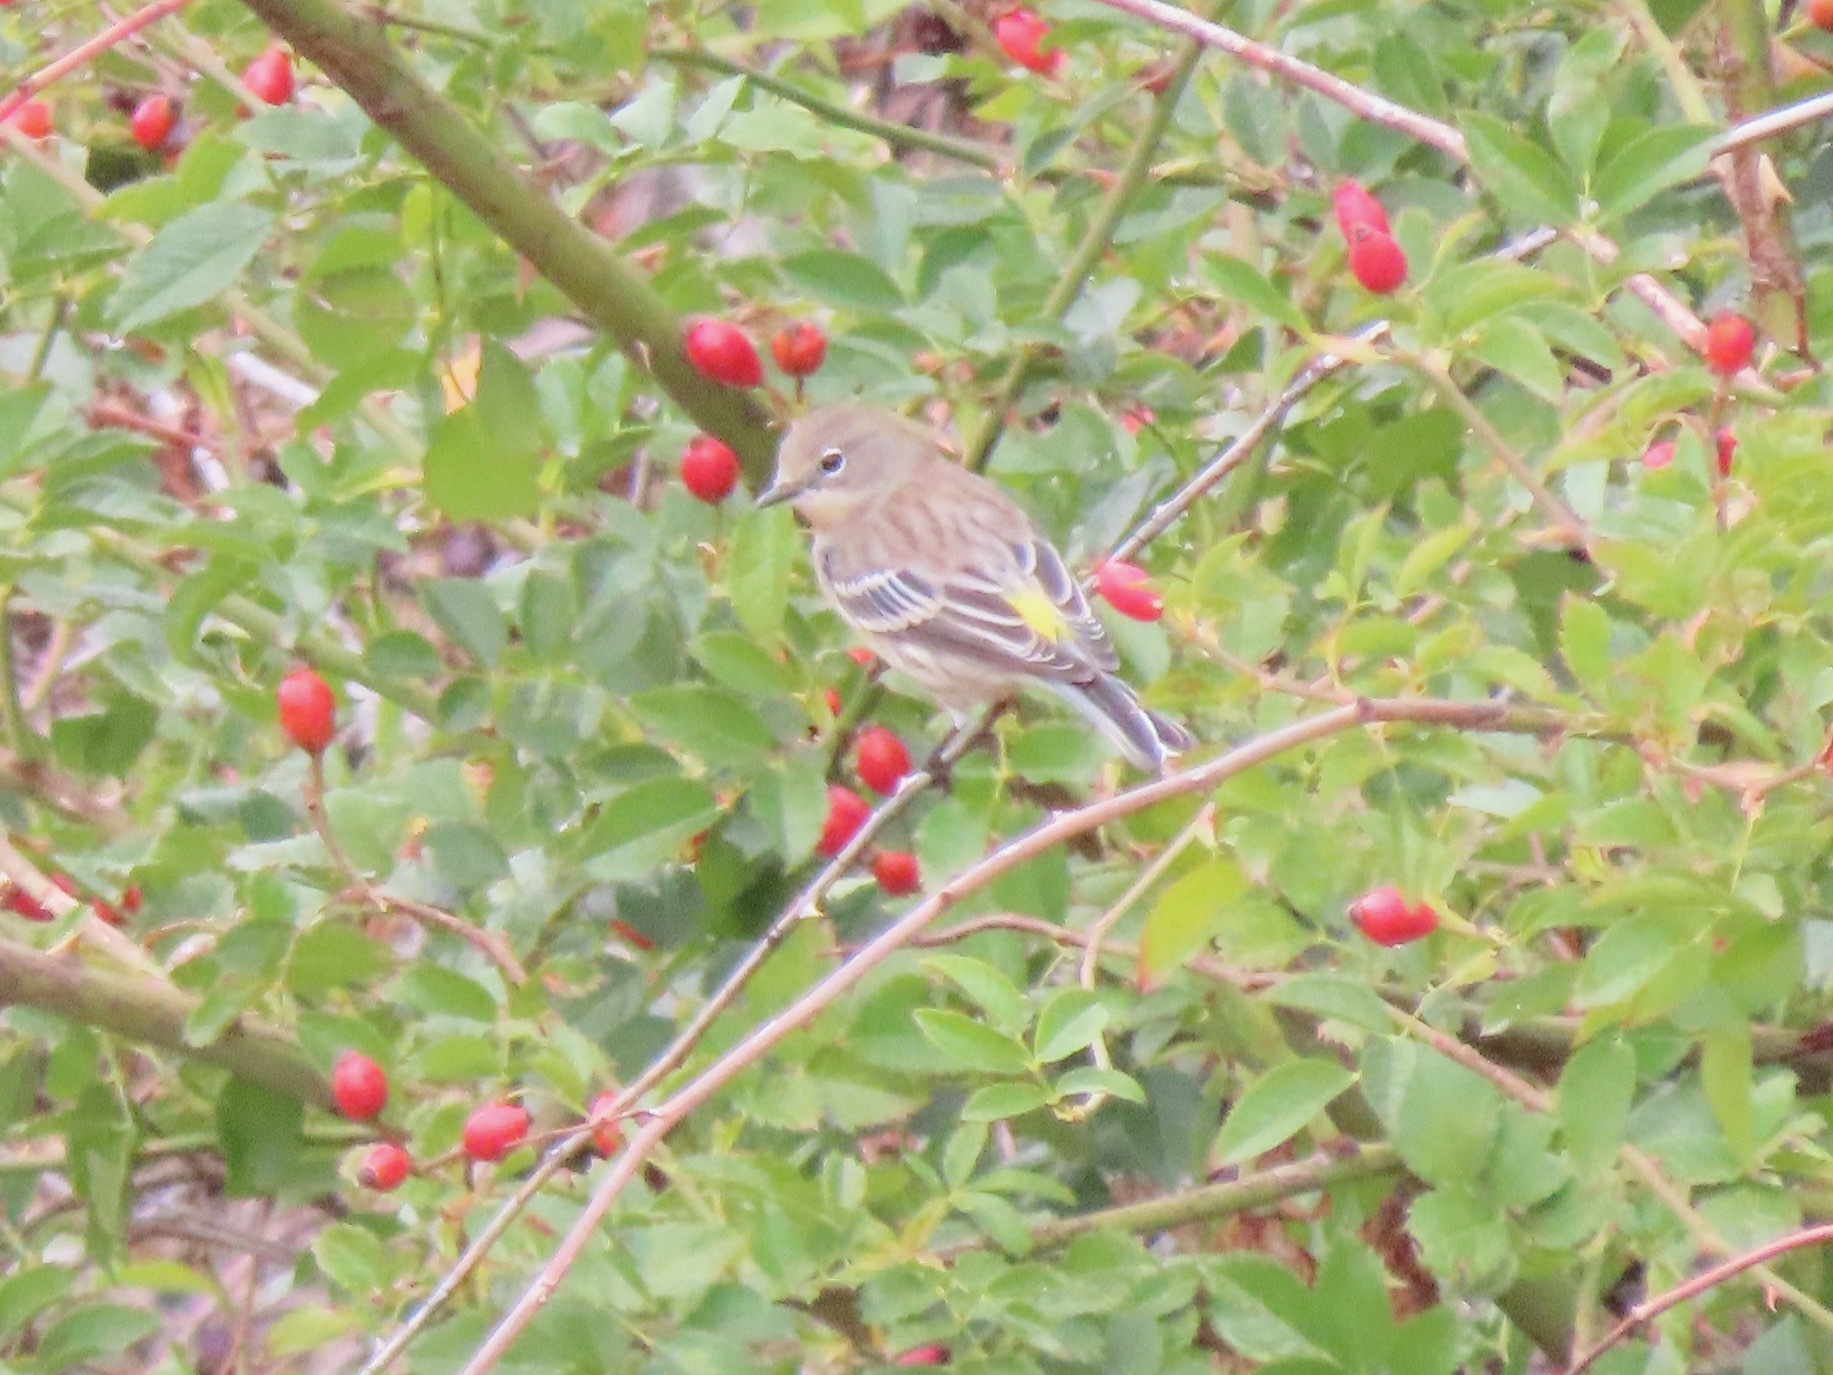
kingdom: Animalia
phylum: Chordata
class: Aves
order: Passeriformes
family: Parulidae
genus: Setophaga
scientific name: Setophaga coronata
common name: Myrtle warbler
